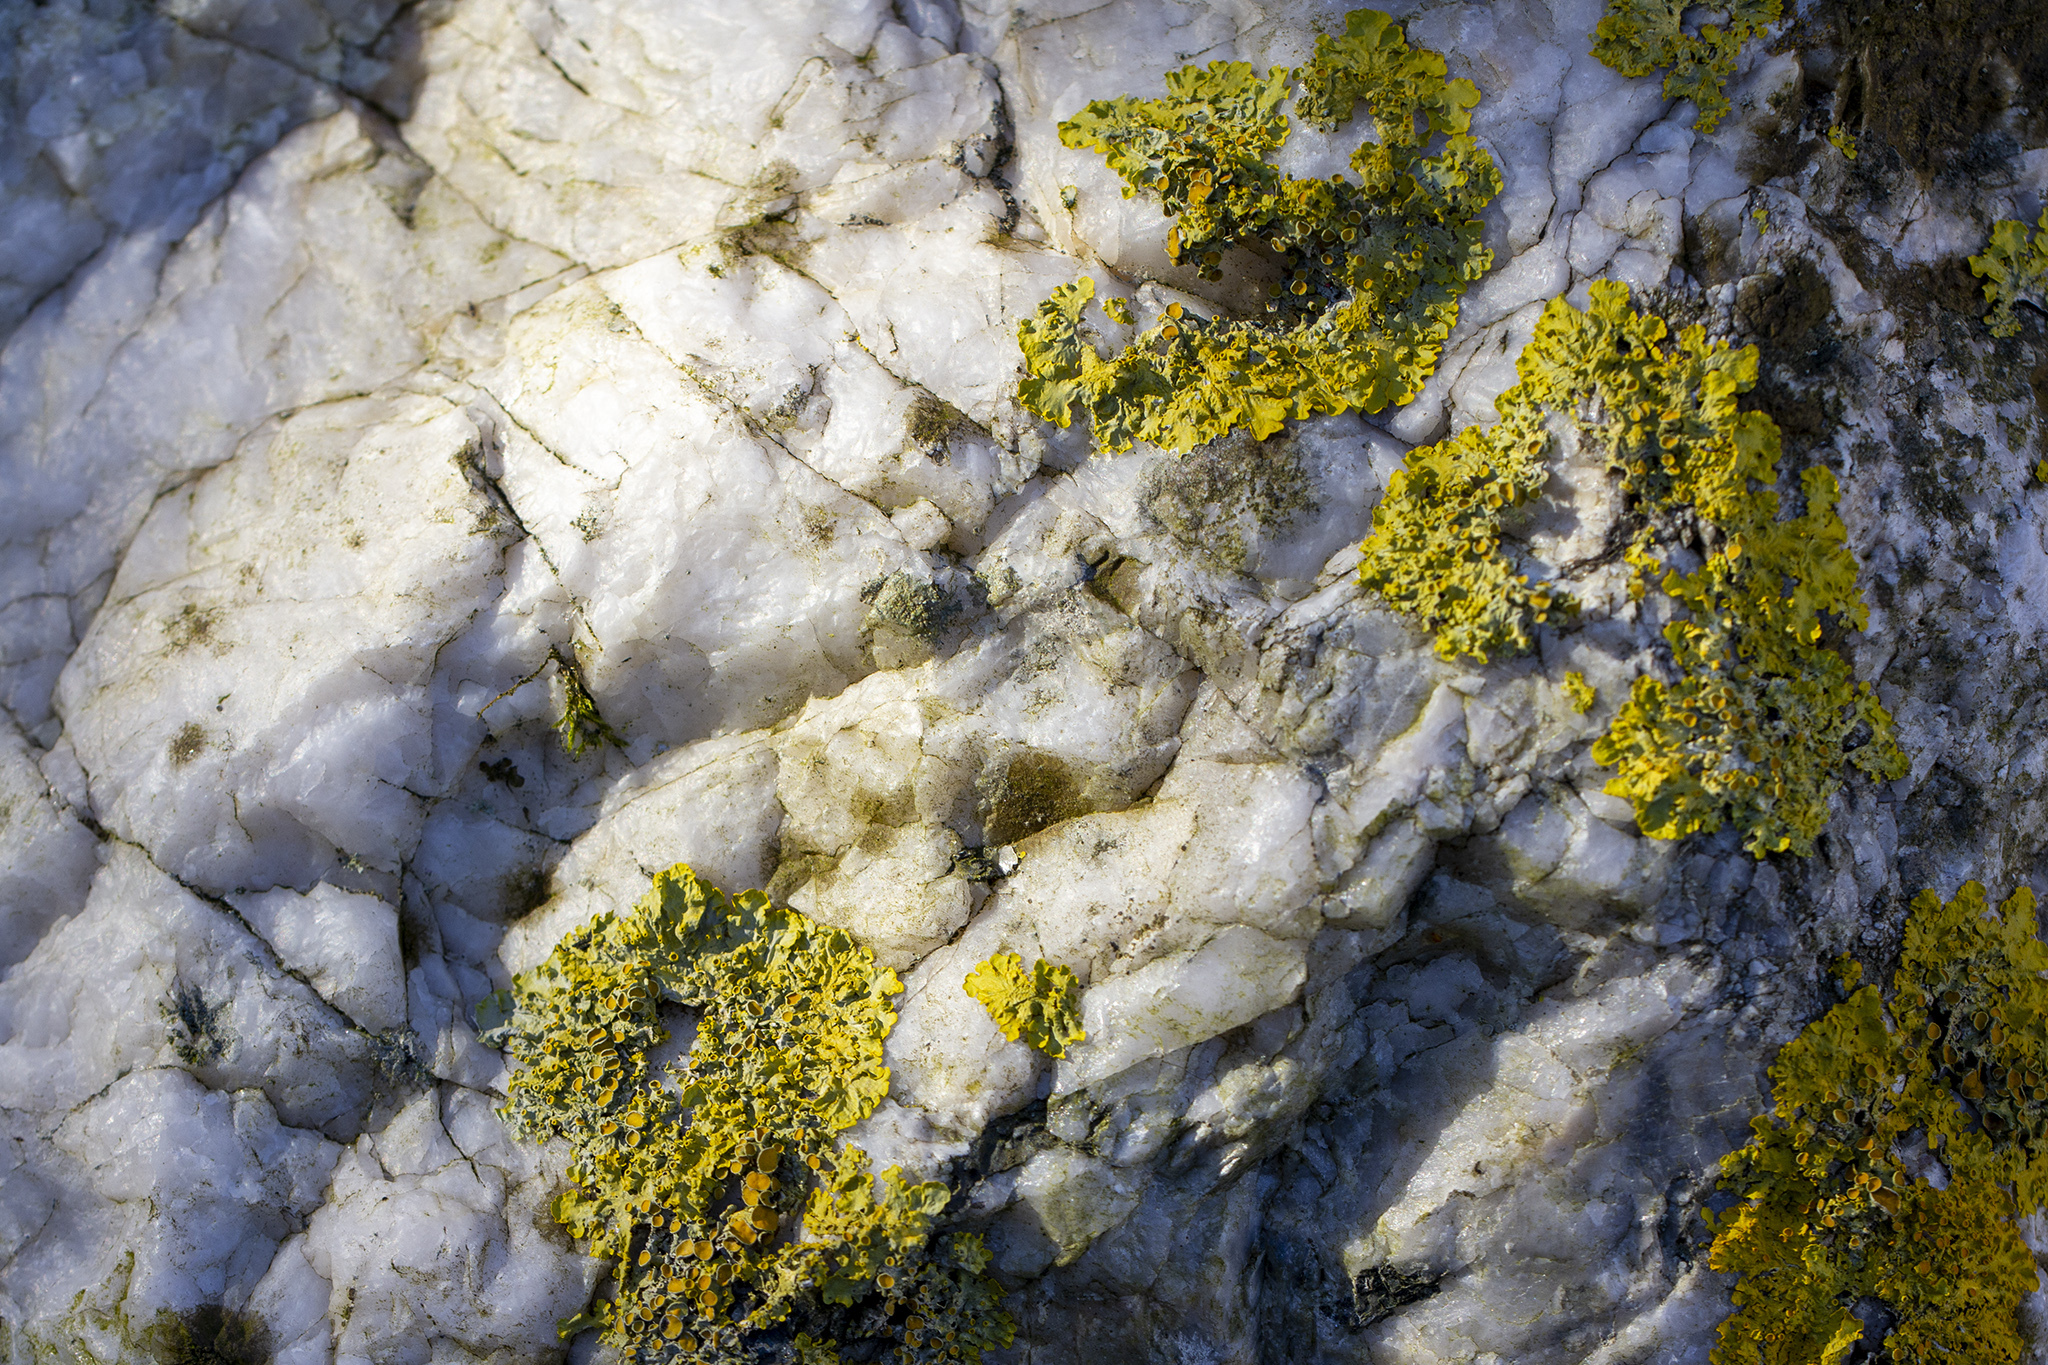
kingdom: Fungi
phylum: Ascomycota
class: Lecanoromycetes
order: Teloschistales
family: Teloschistaceae
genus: Xanthoria
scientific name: Xanthoria parietina
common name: Common orange lichen
